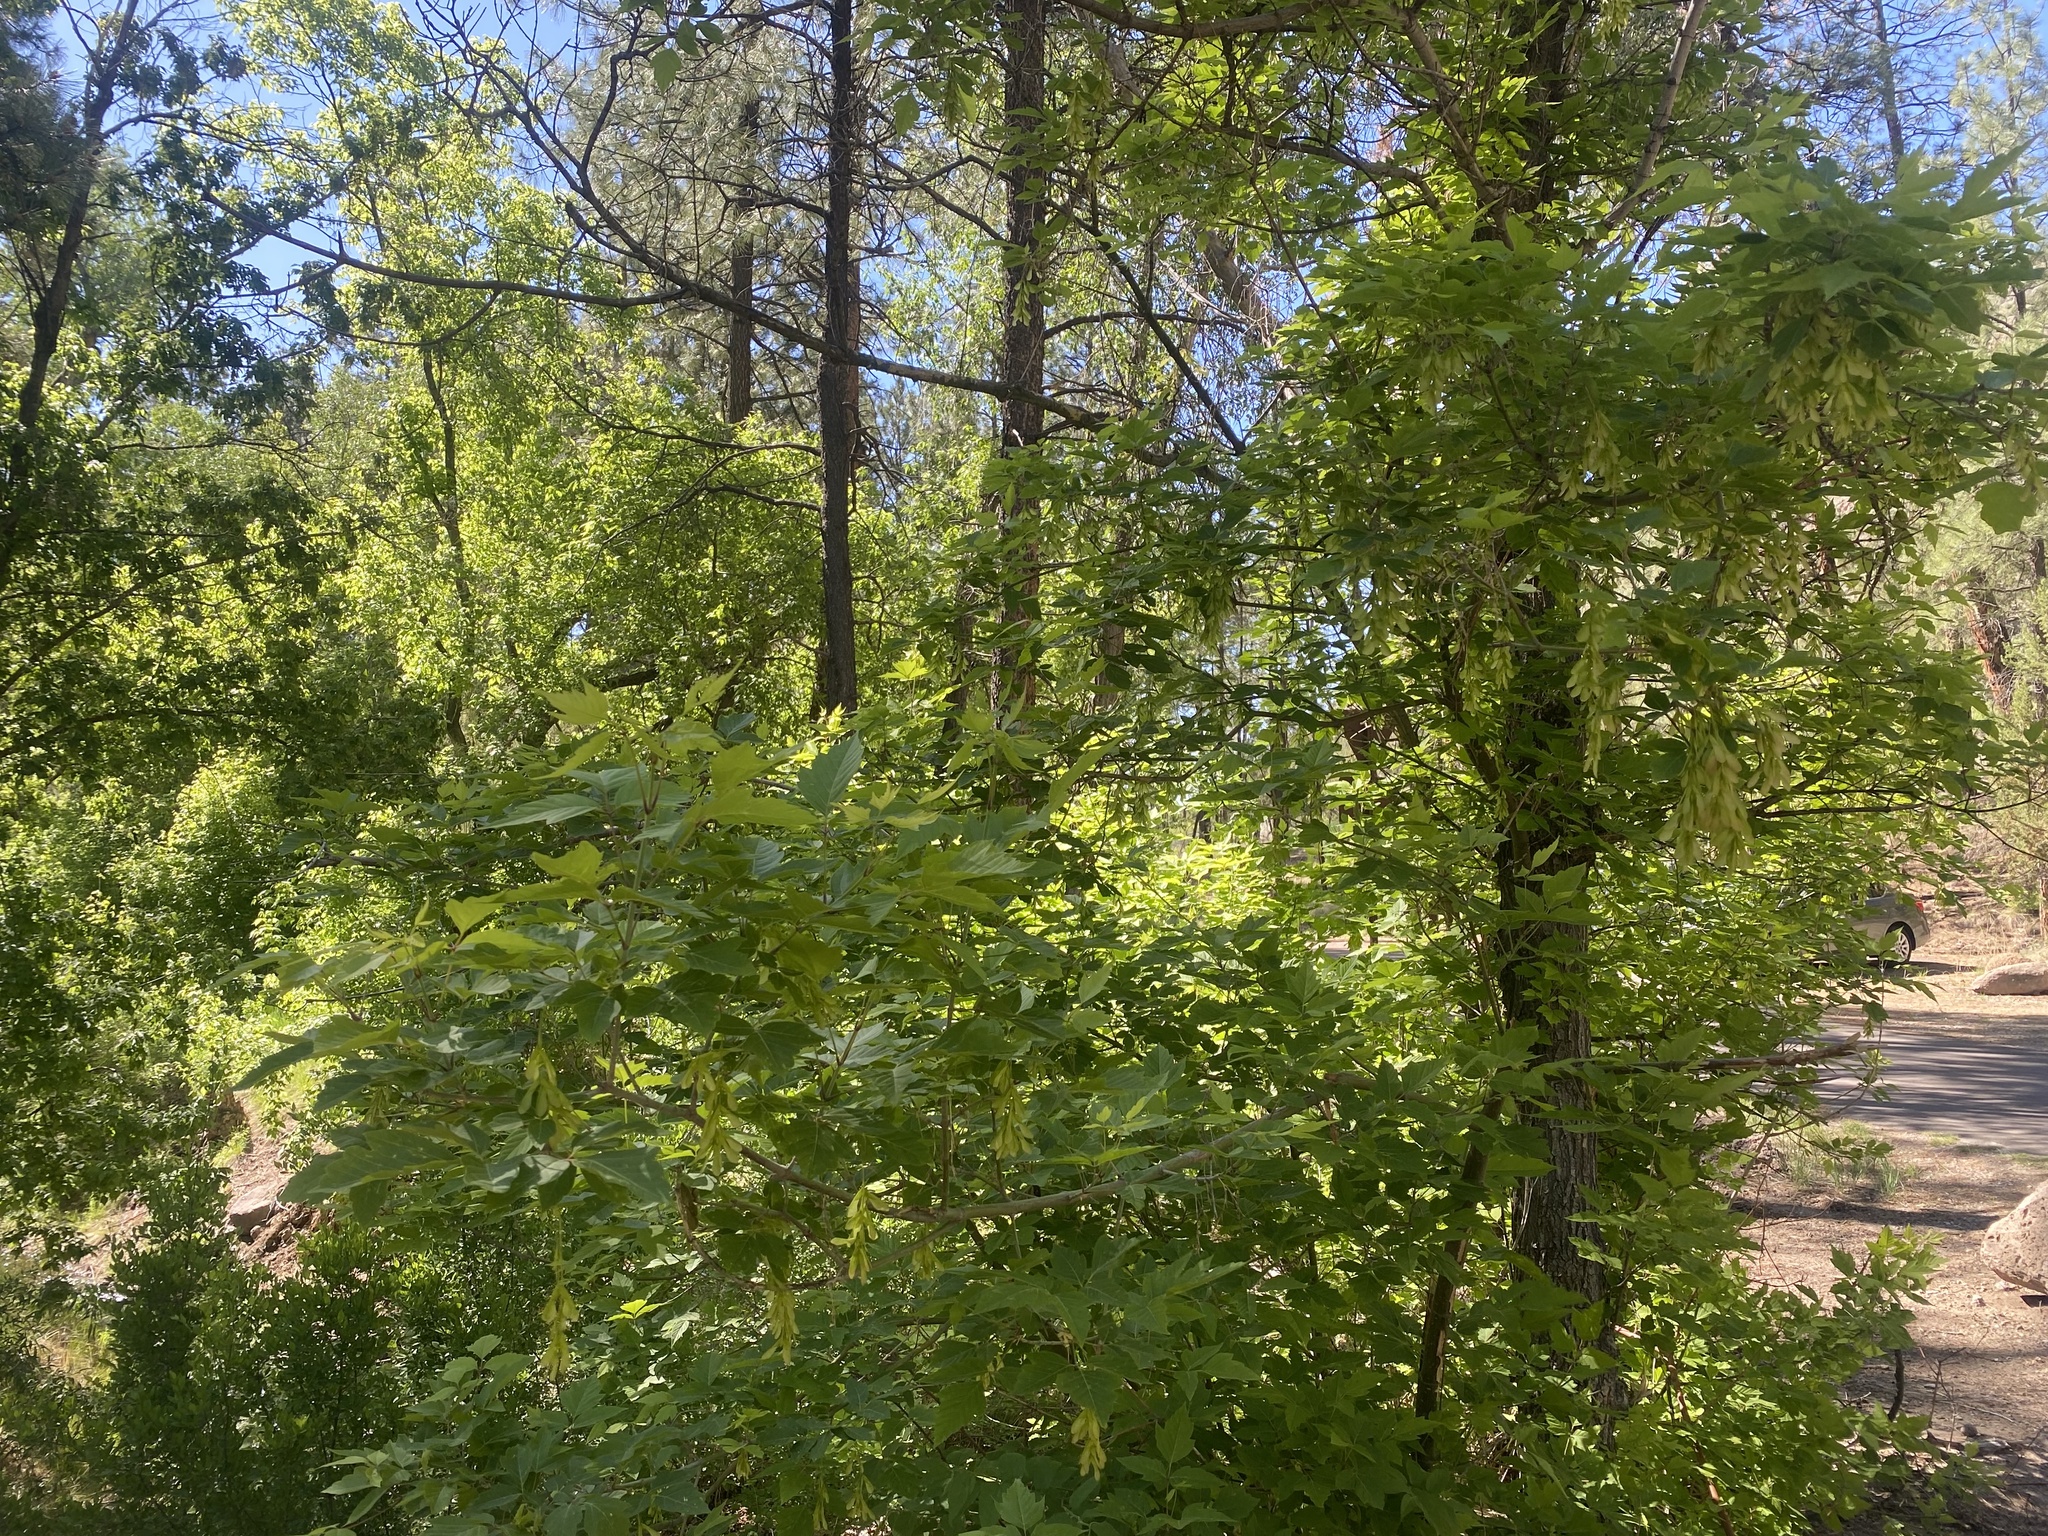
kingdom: Plantae
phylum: Tracheophyta
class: Magnoliopsida
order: Sapindales
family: Sapindaceae
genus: Acer
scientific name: Acer negundo
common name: Ashleaf maple
